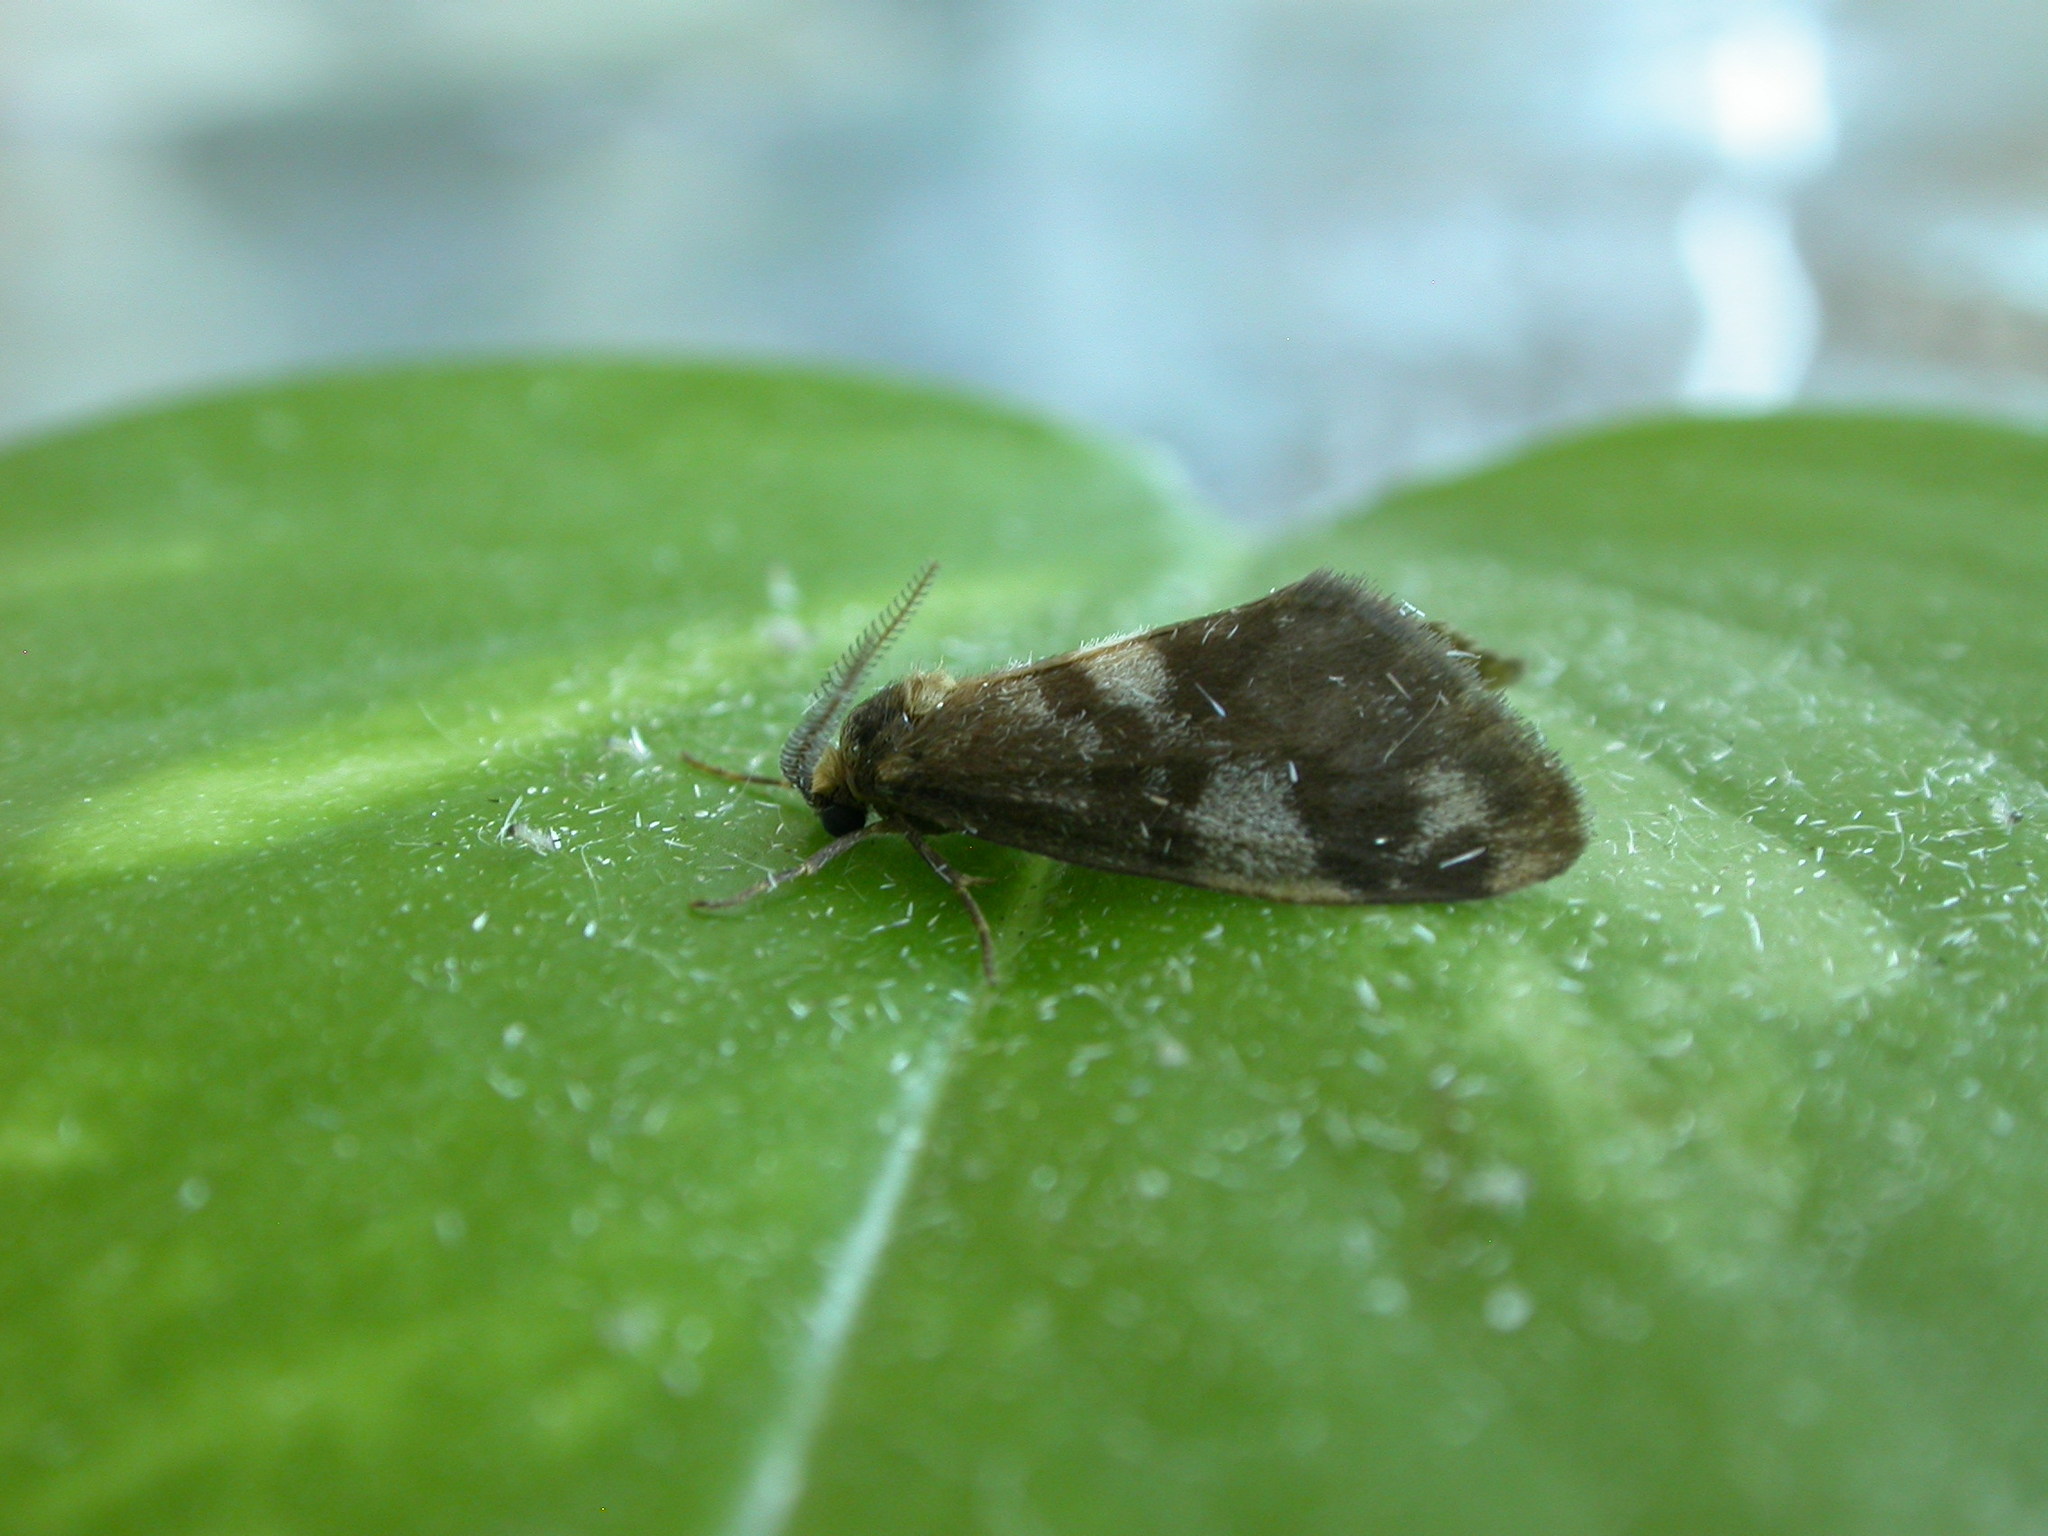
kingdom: Animalia
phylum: Arthropoda
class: Insecta
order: Lepidoptera
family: Erebidae
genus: Anestia
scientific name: Anestia semiochrea
